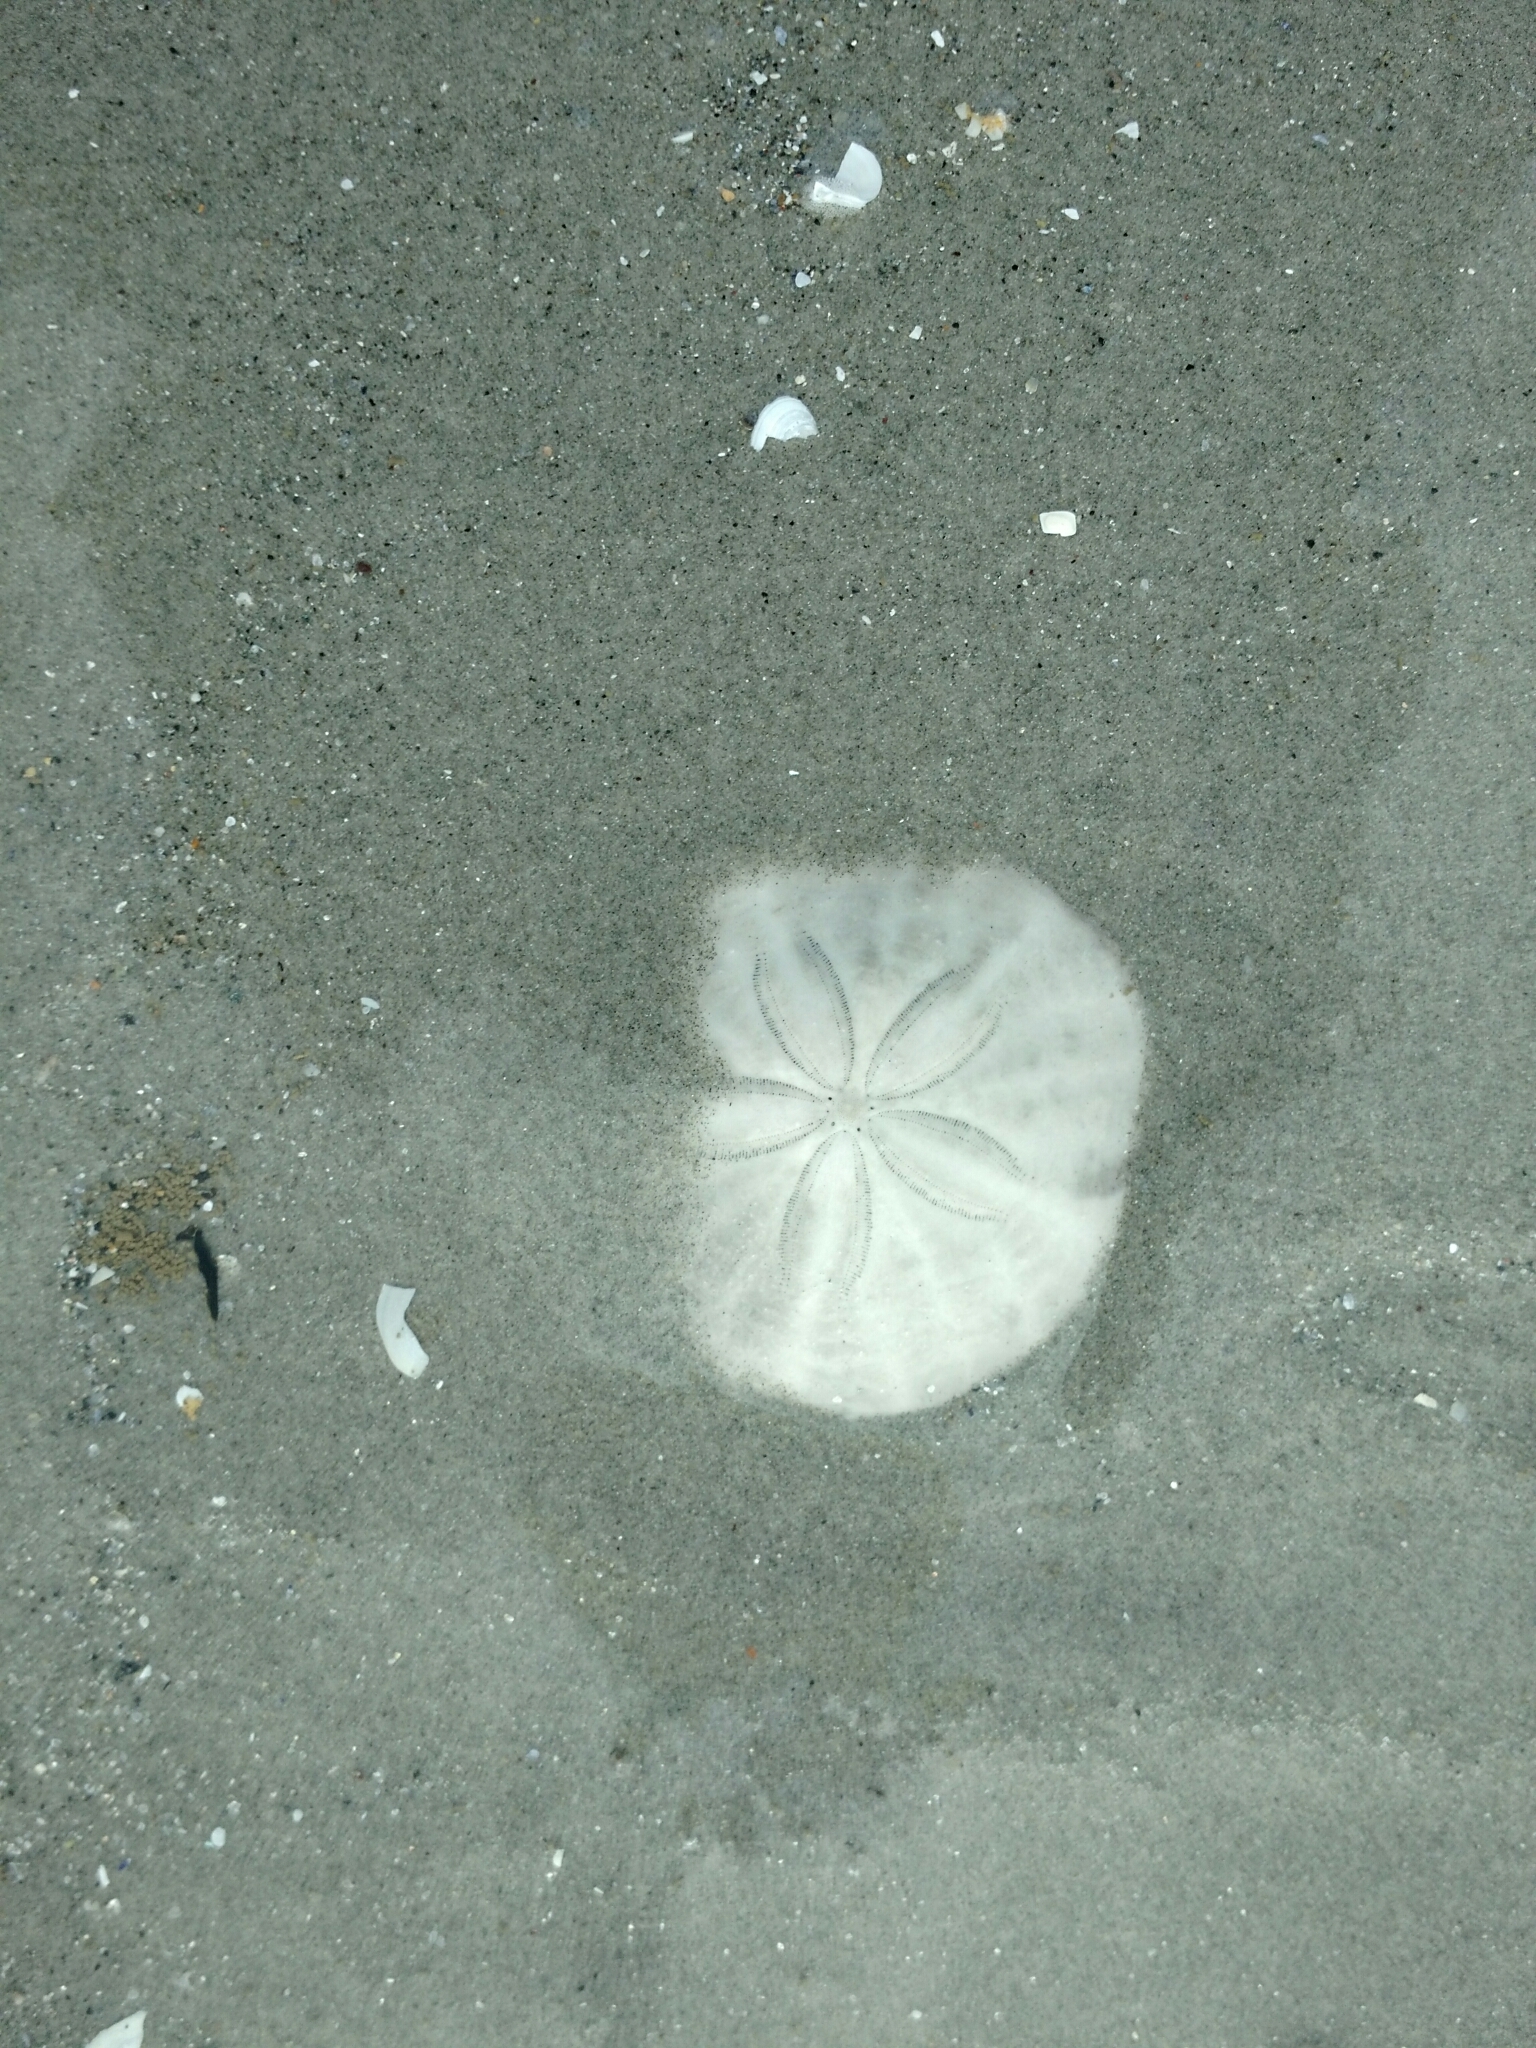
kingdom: Animalia
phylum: Echinodermata
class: Echinoidea
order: Echinolampadacea
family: Echinarachniidae
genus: Echinarachnius
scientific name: Echinarachnius parma
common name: Common sand dollar
